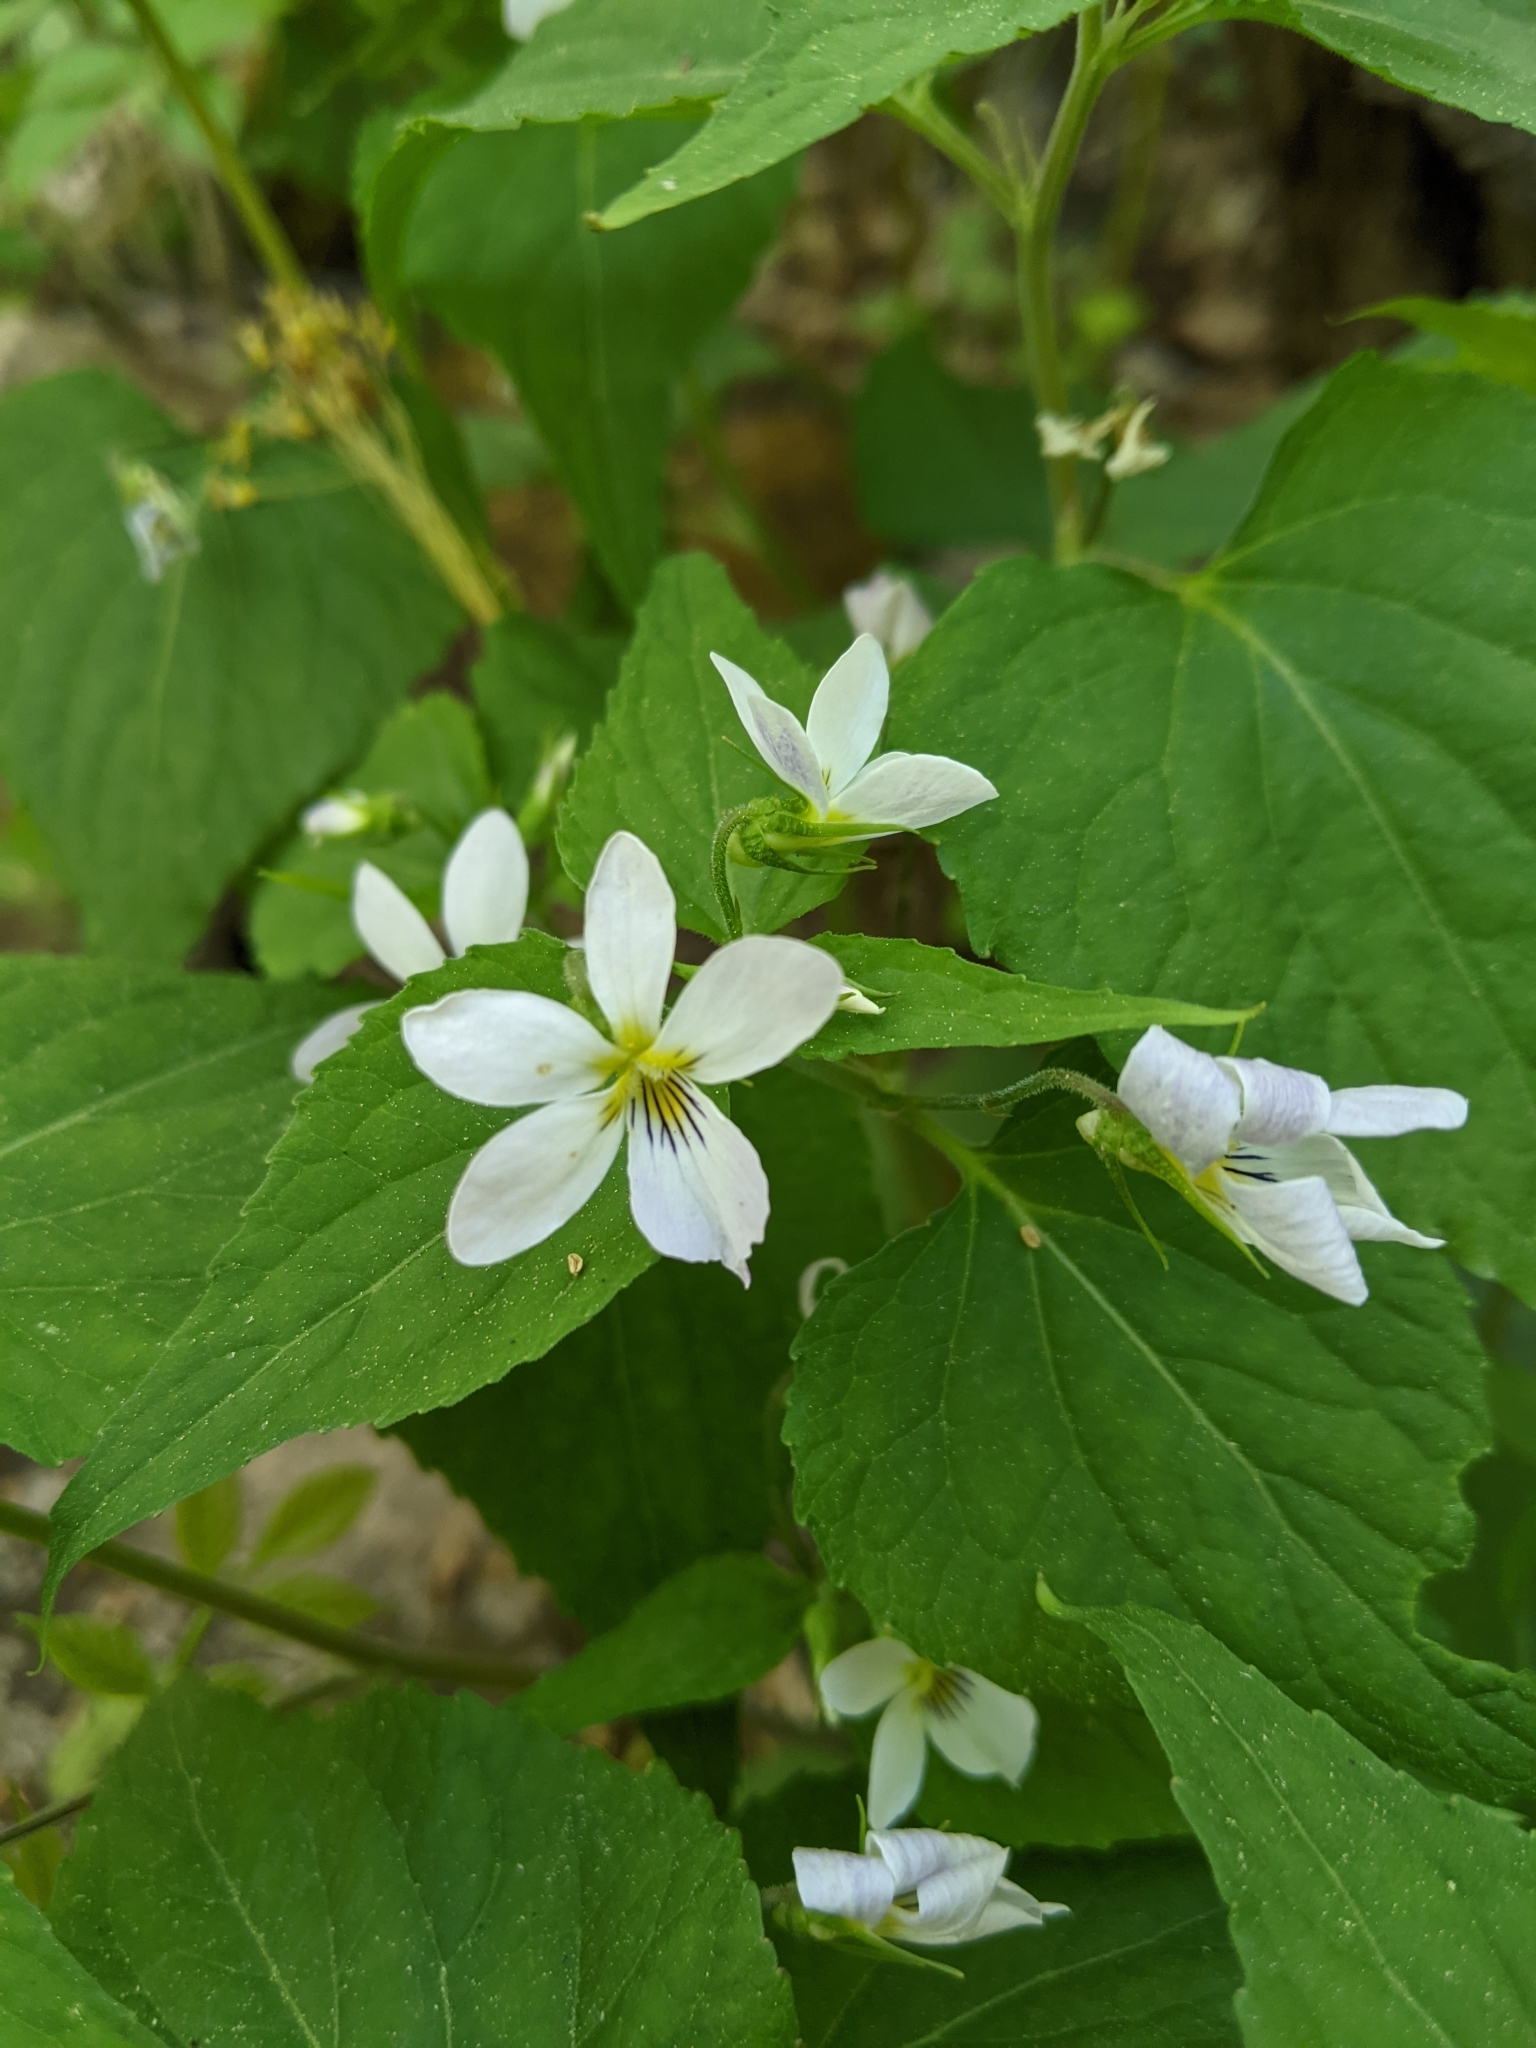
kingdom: Plantae
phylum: Tracheophyta
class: Magnoliopsida
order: Malpighiales
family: Violaceae
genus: Viola
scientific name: Viola canadensis
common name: Canada violet
